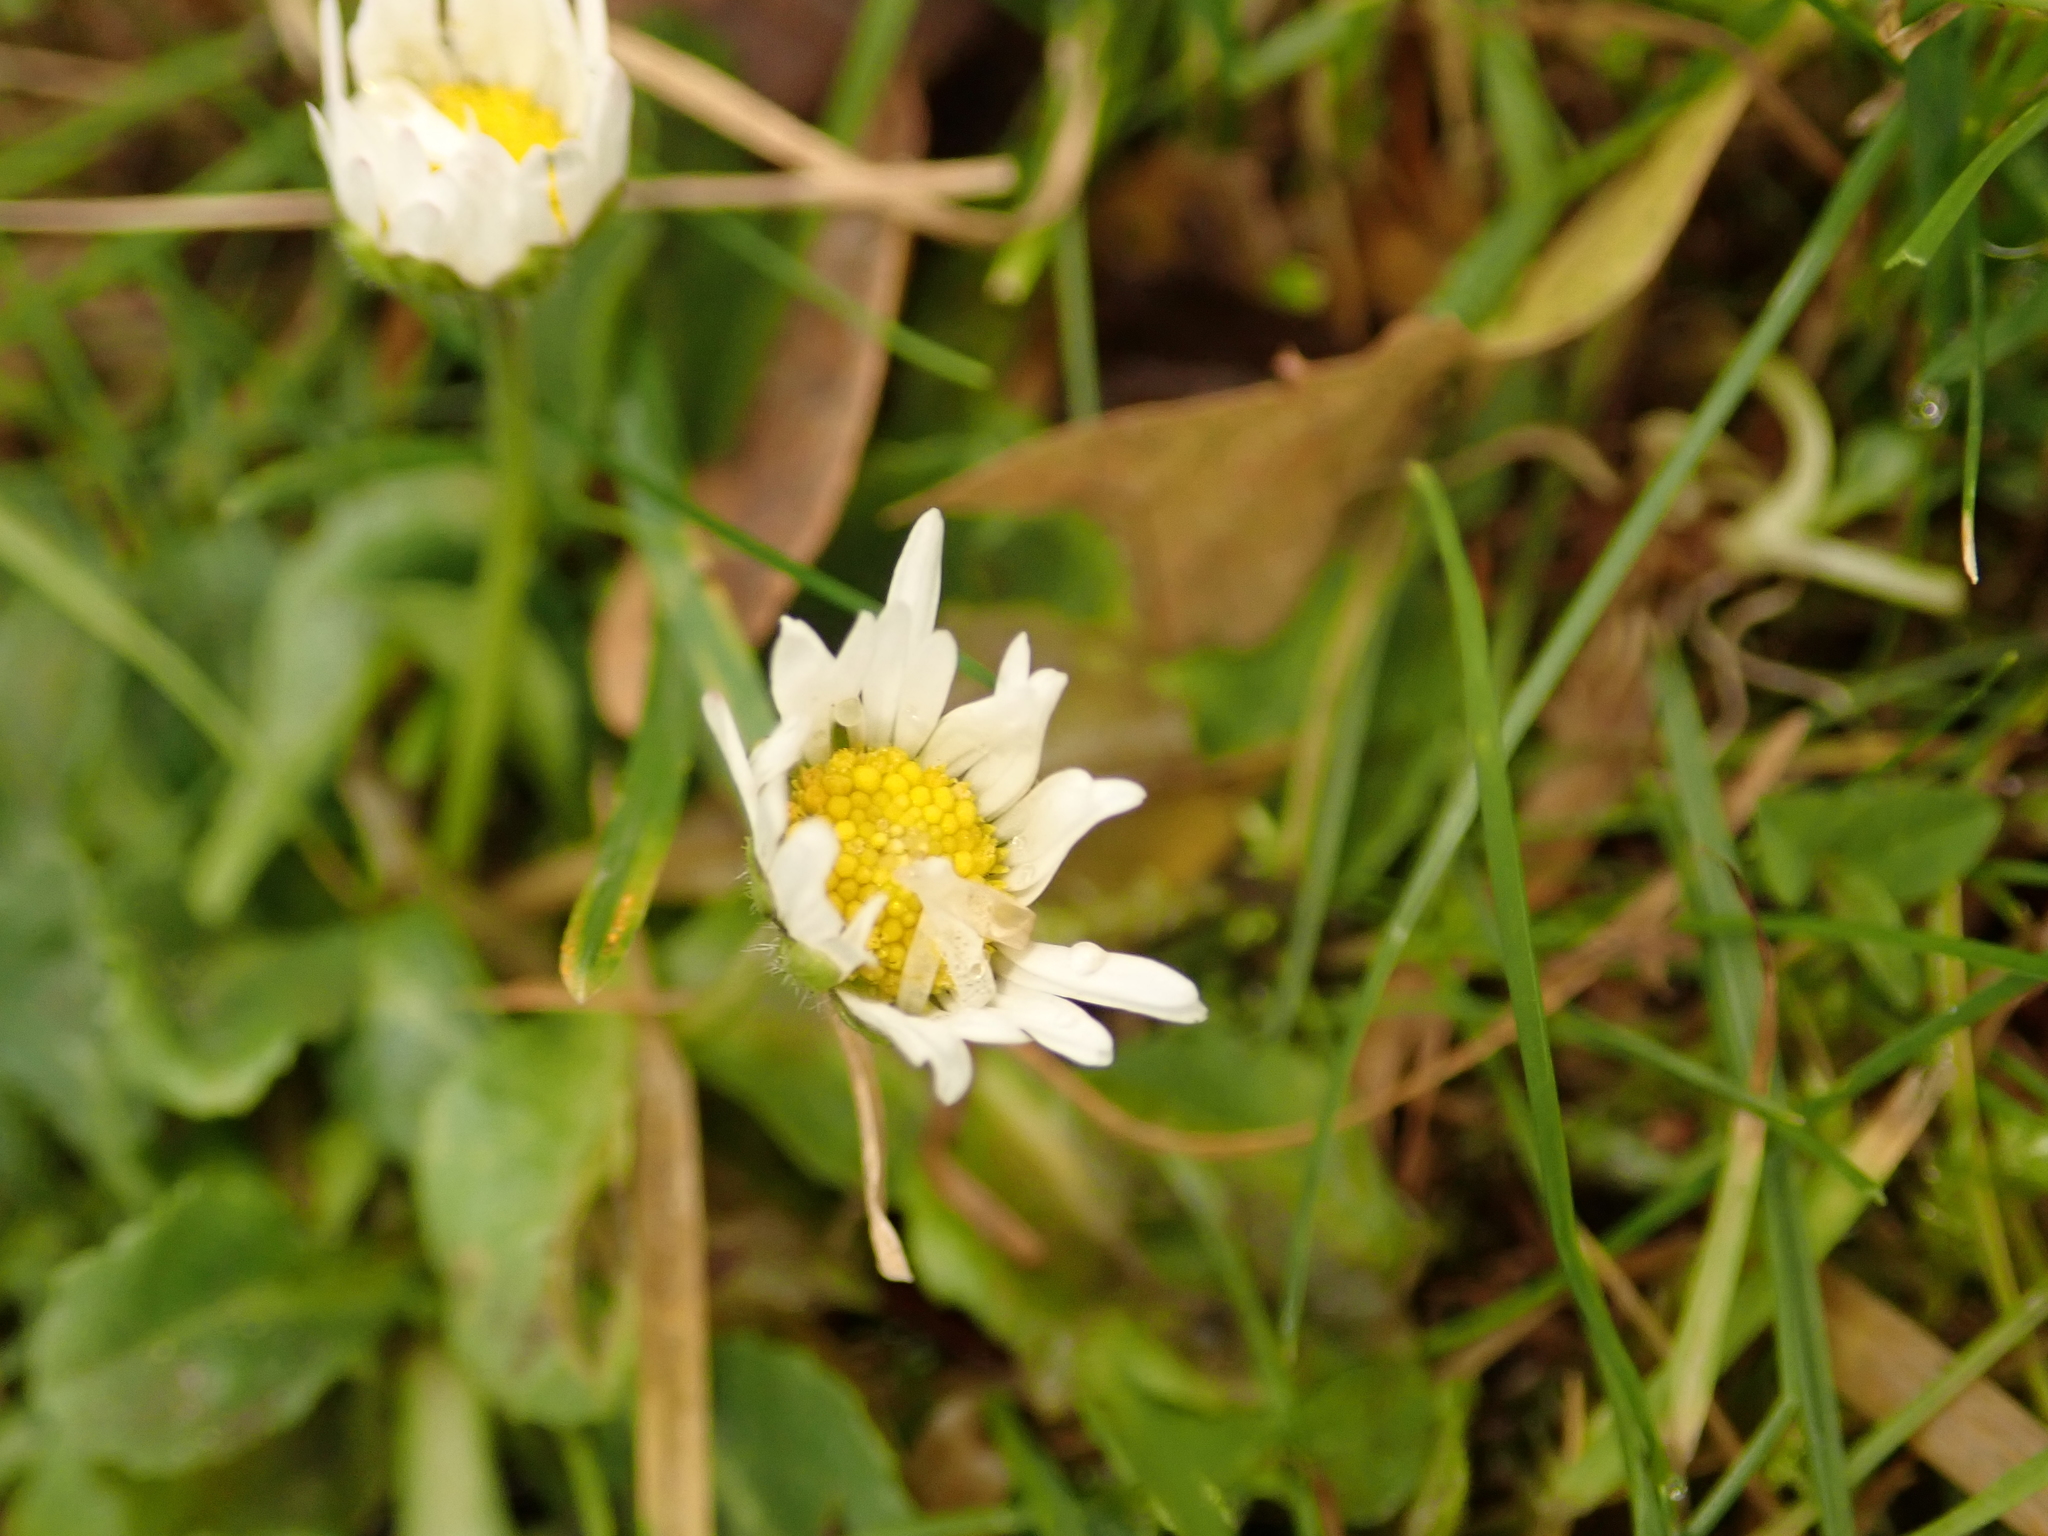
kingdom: Plantae
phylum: Tracheophyta
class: Magnoliopsida
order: Asterales
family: Asteraceae
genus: Bellis
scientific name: Bellis perennis
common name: Lawndaisy
